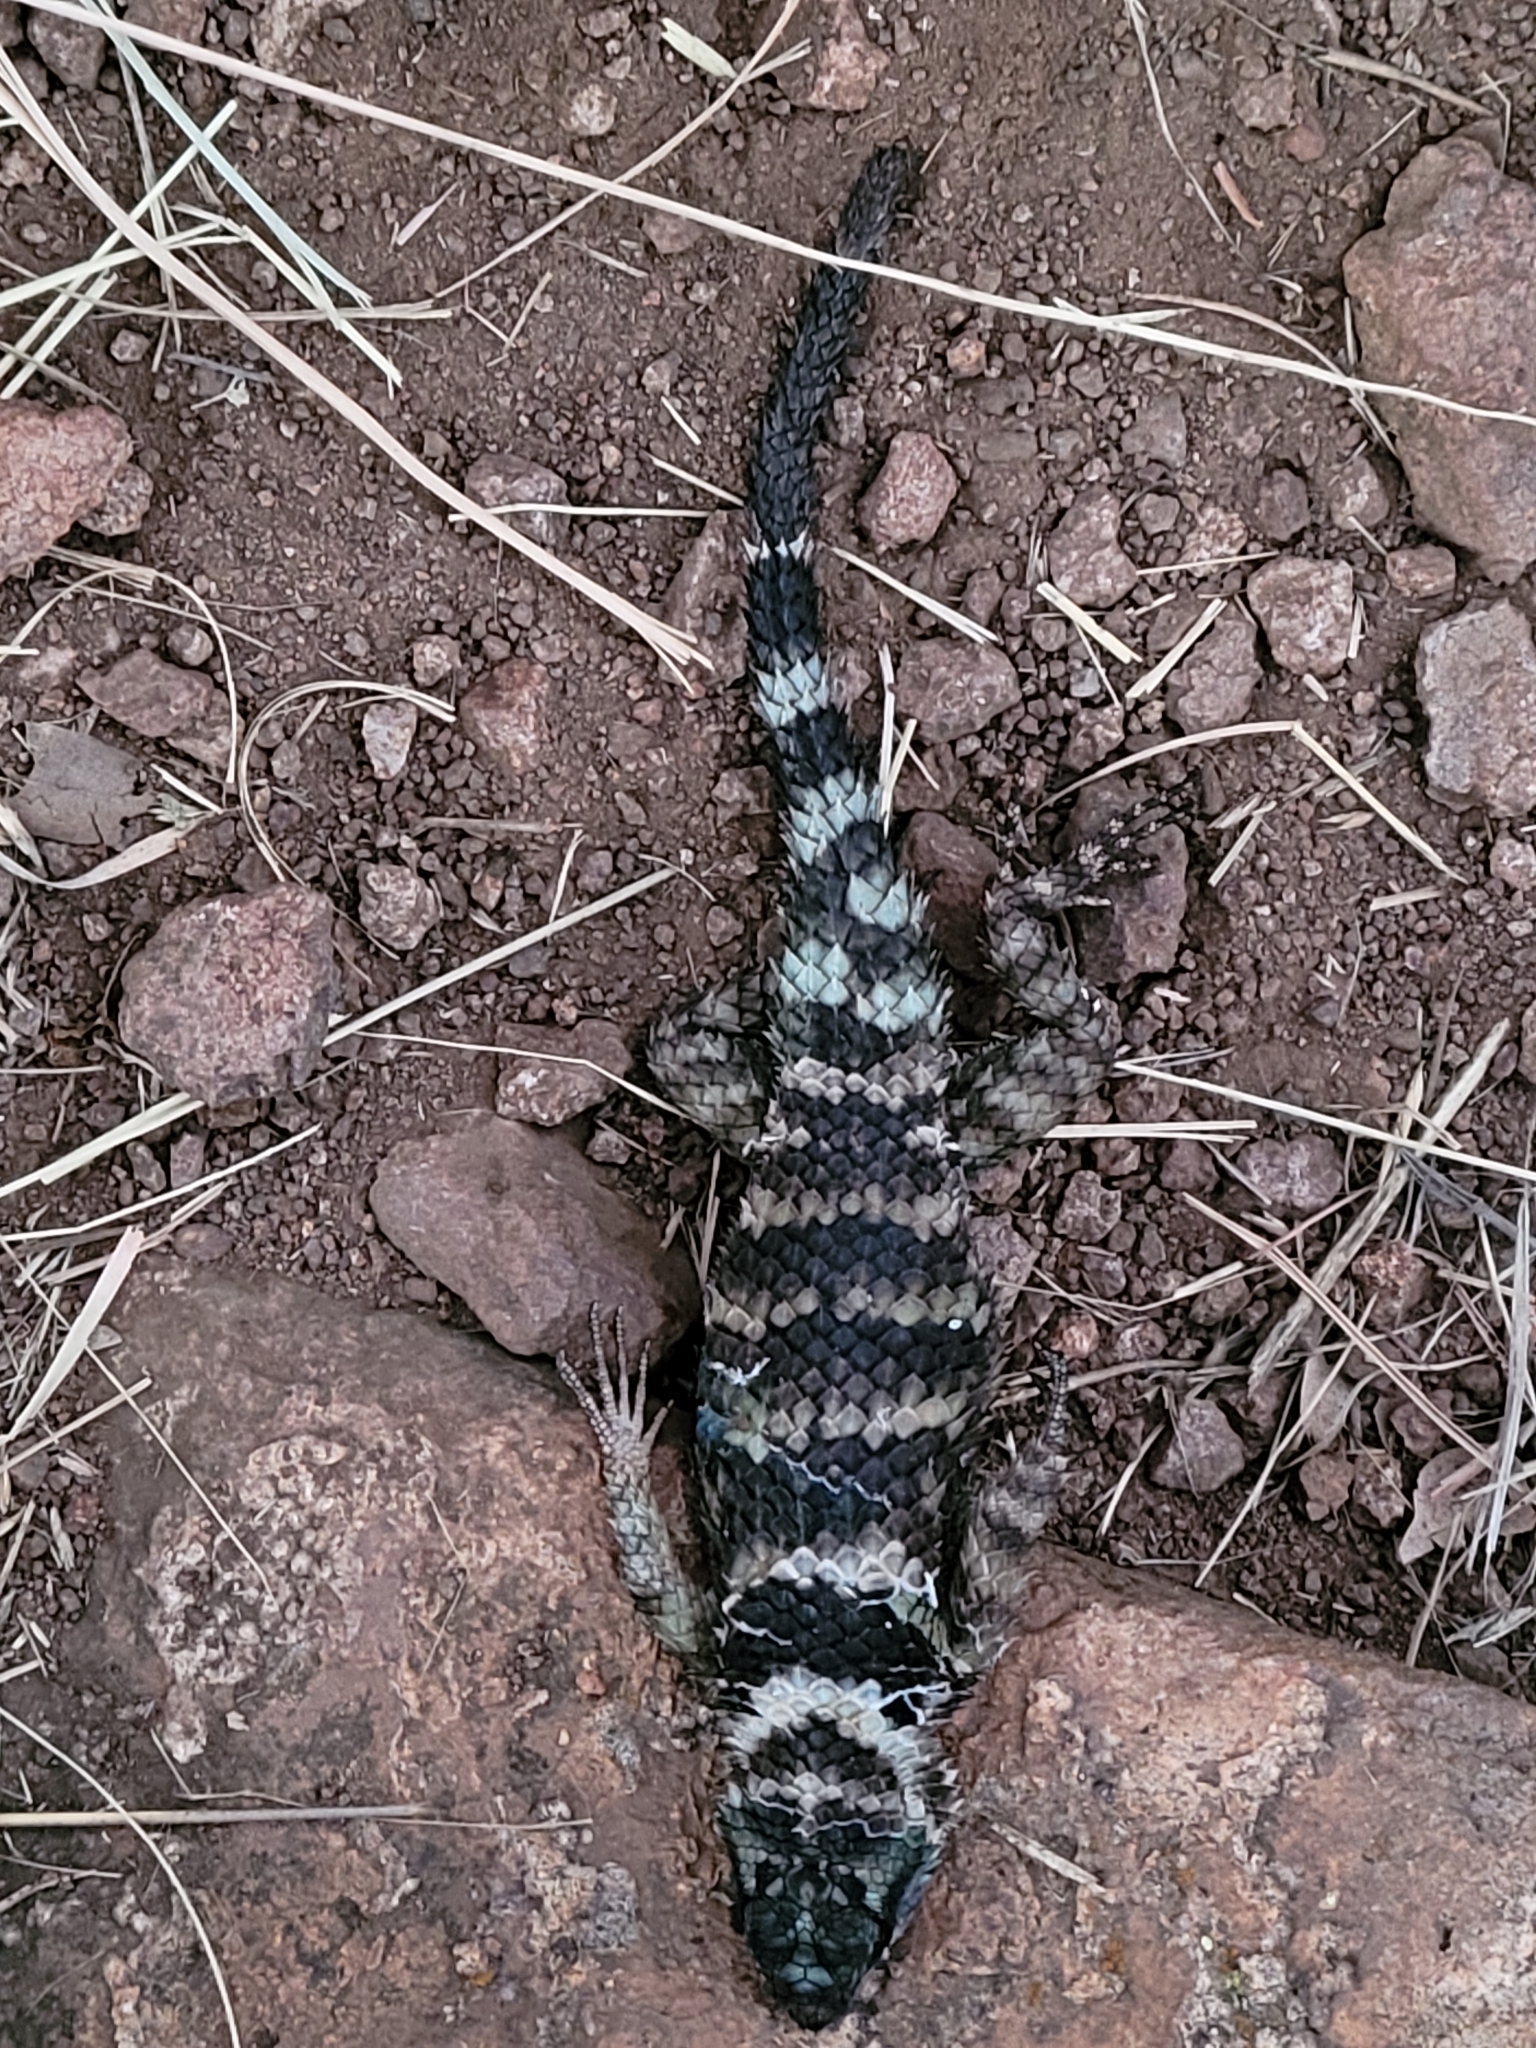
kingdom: Animalia
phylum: Chordata
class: Squamata
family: Phrynosomatidae
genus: Sceloporus
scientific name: Sceloporus poinsettii
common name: Crevice spiny lizard
